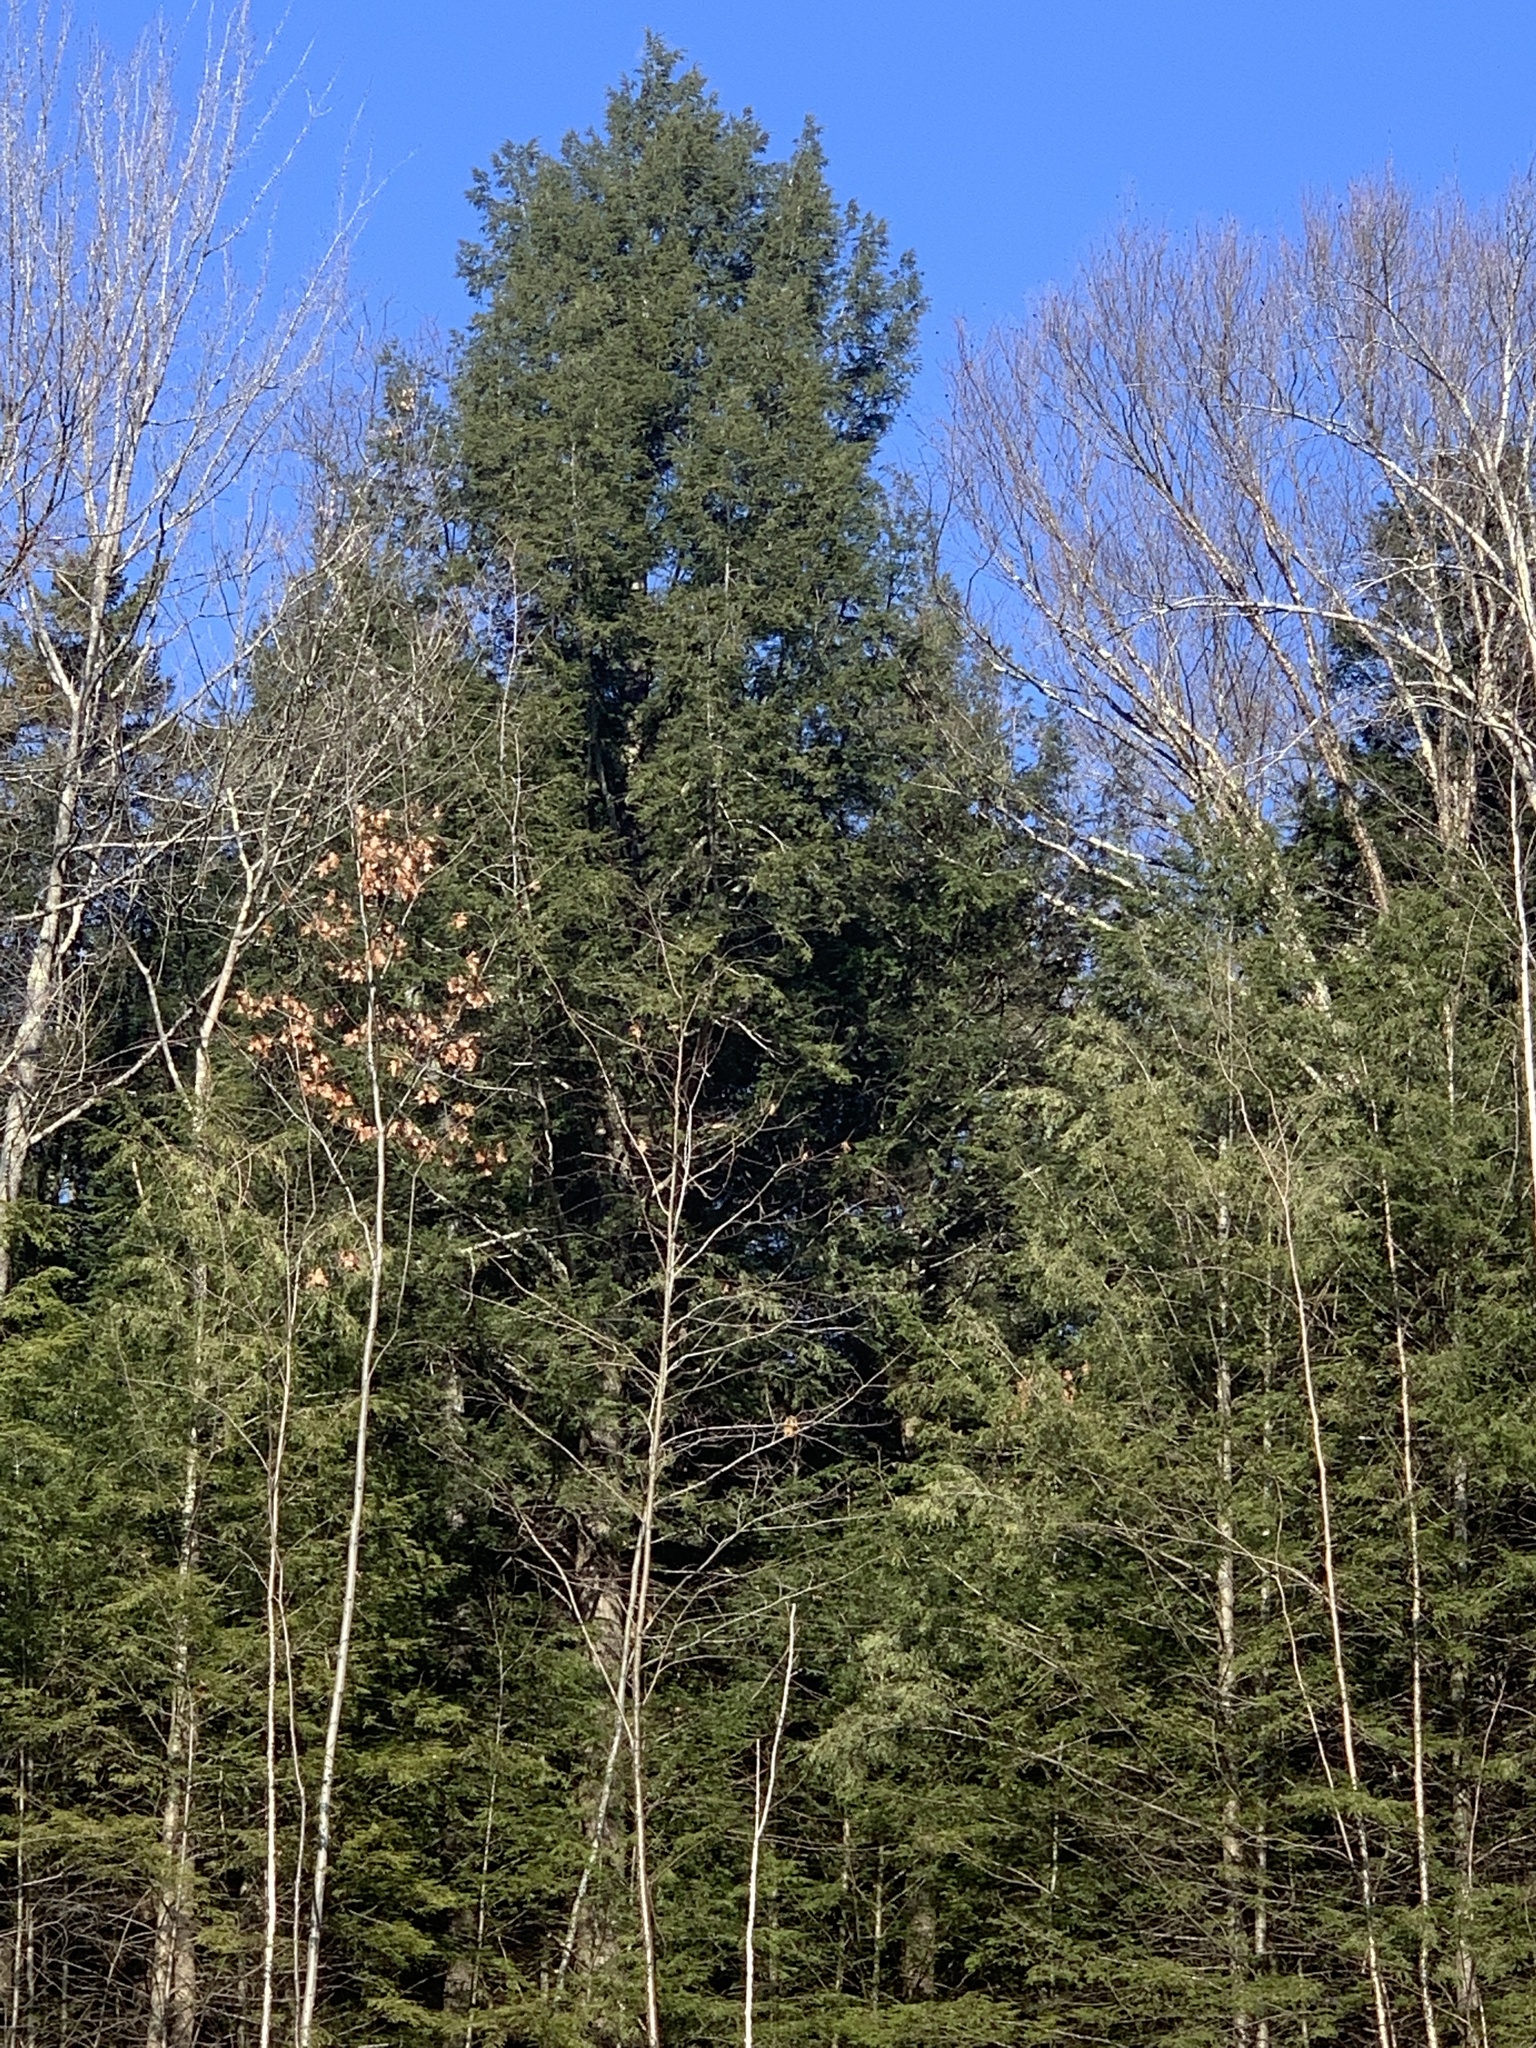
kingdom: Plantae
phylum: Tracheophyta
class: Pinopsida
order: Pinales
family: Pinaceae
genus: Tsuga
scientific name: Tsuga canadensis
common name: Eastern hemlock
